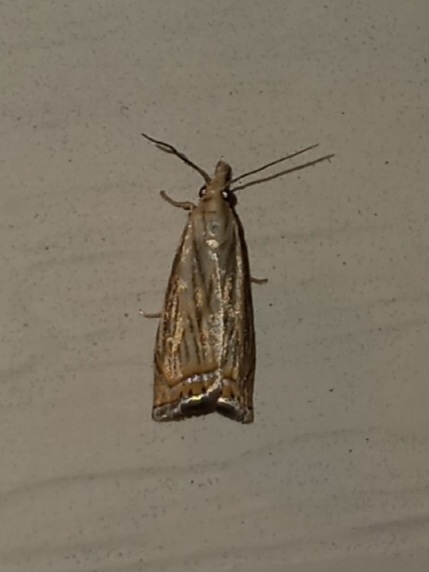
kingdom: Animalia
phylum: Arthropoda
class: Insecta
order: Lepidoptera
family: Crambidae
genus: Chrysoteuchia
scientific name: Chrysoteuchia topiarius
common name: Topiary grass-veneer
